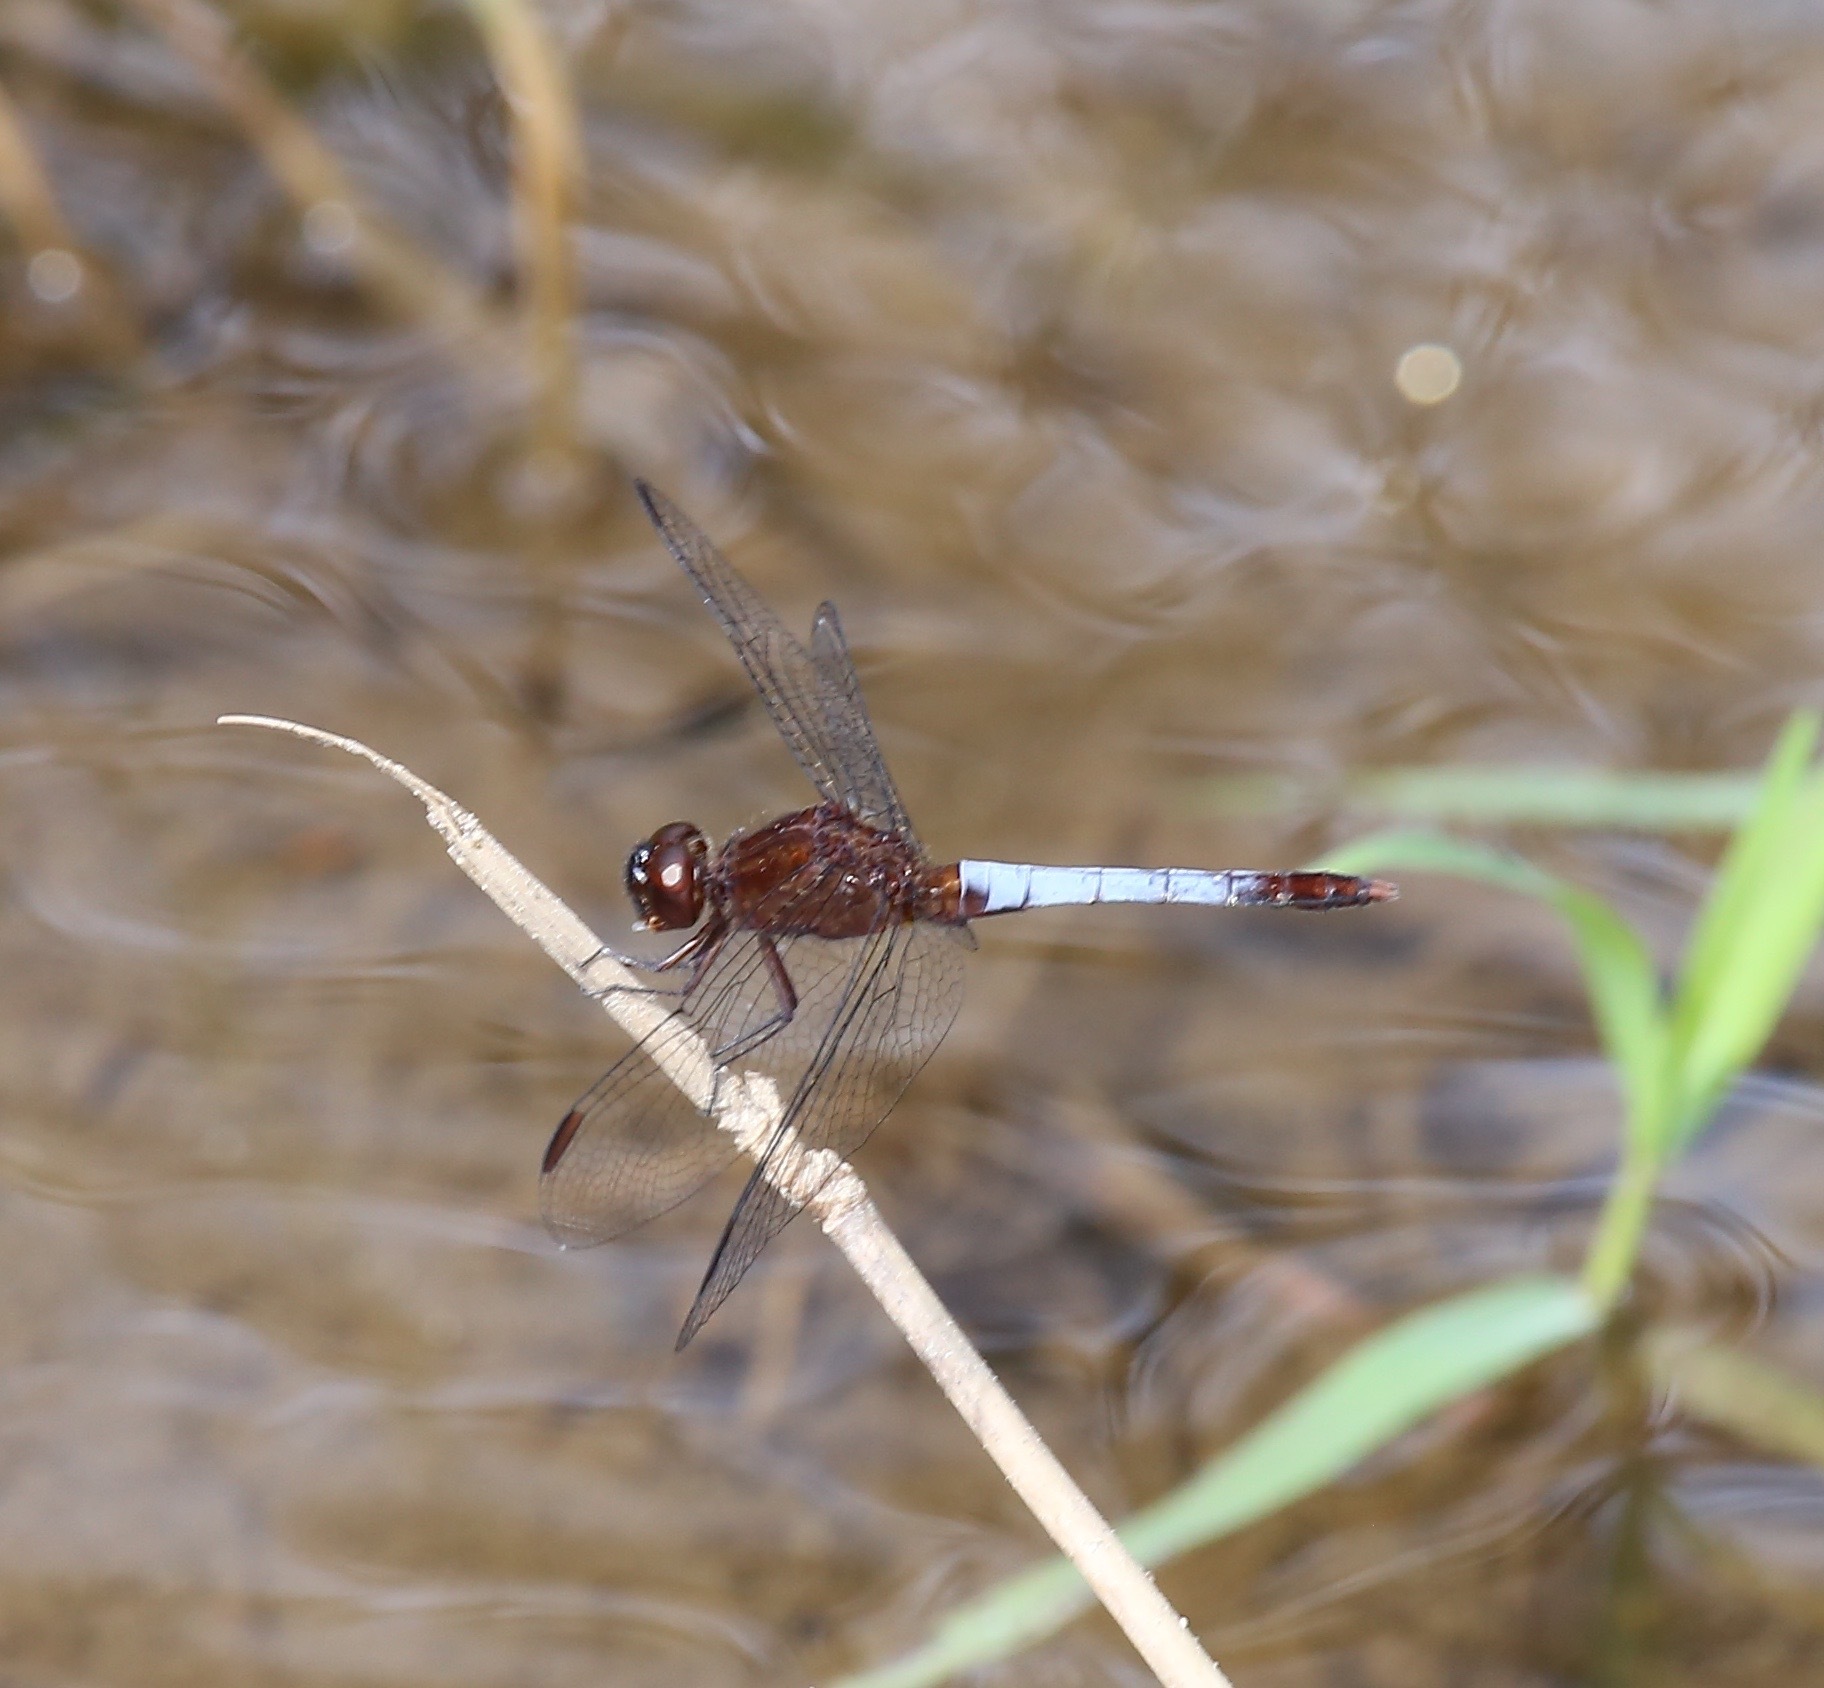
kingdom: Animalia
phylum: Arthropoda
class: Insecta
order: Odonata
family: Libellulidae
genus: Erythrodiplax
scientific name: Erythrodiplax basifusca
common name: Plateau dragonlet
